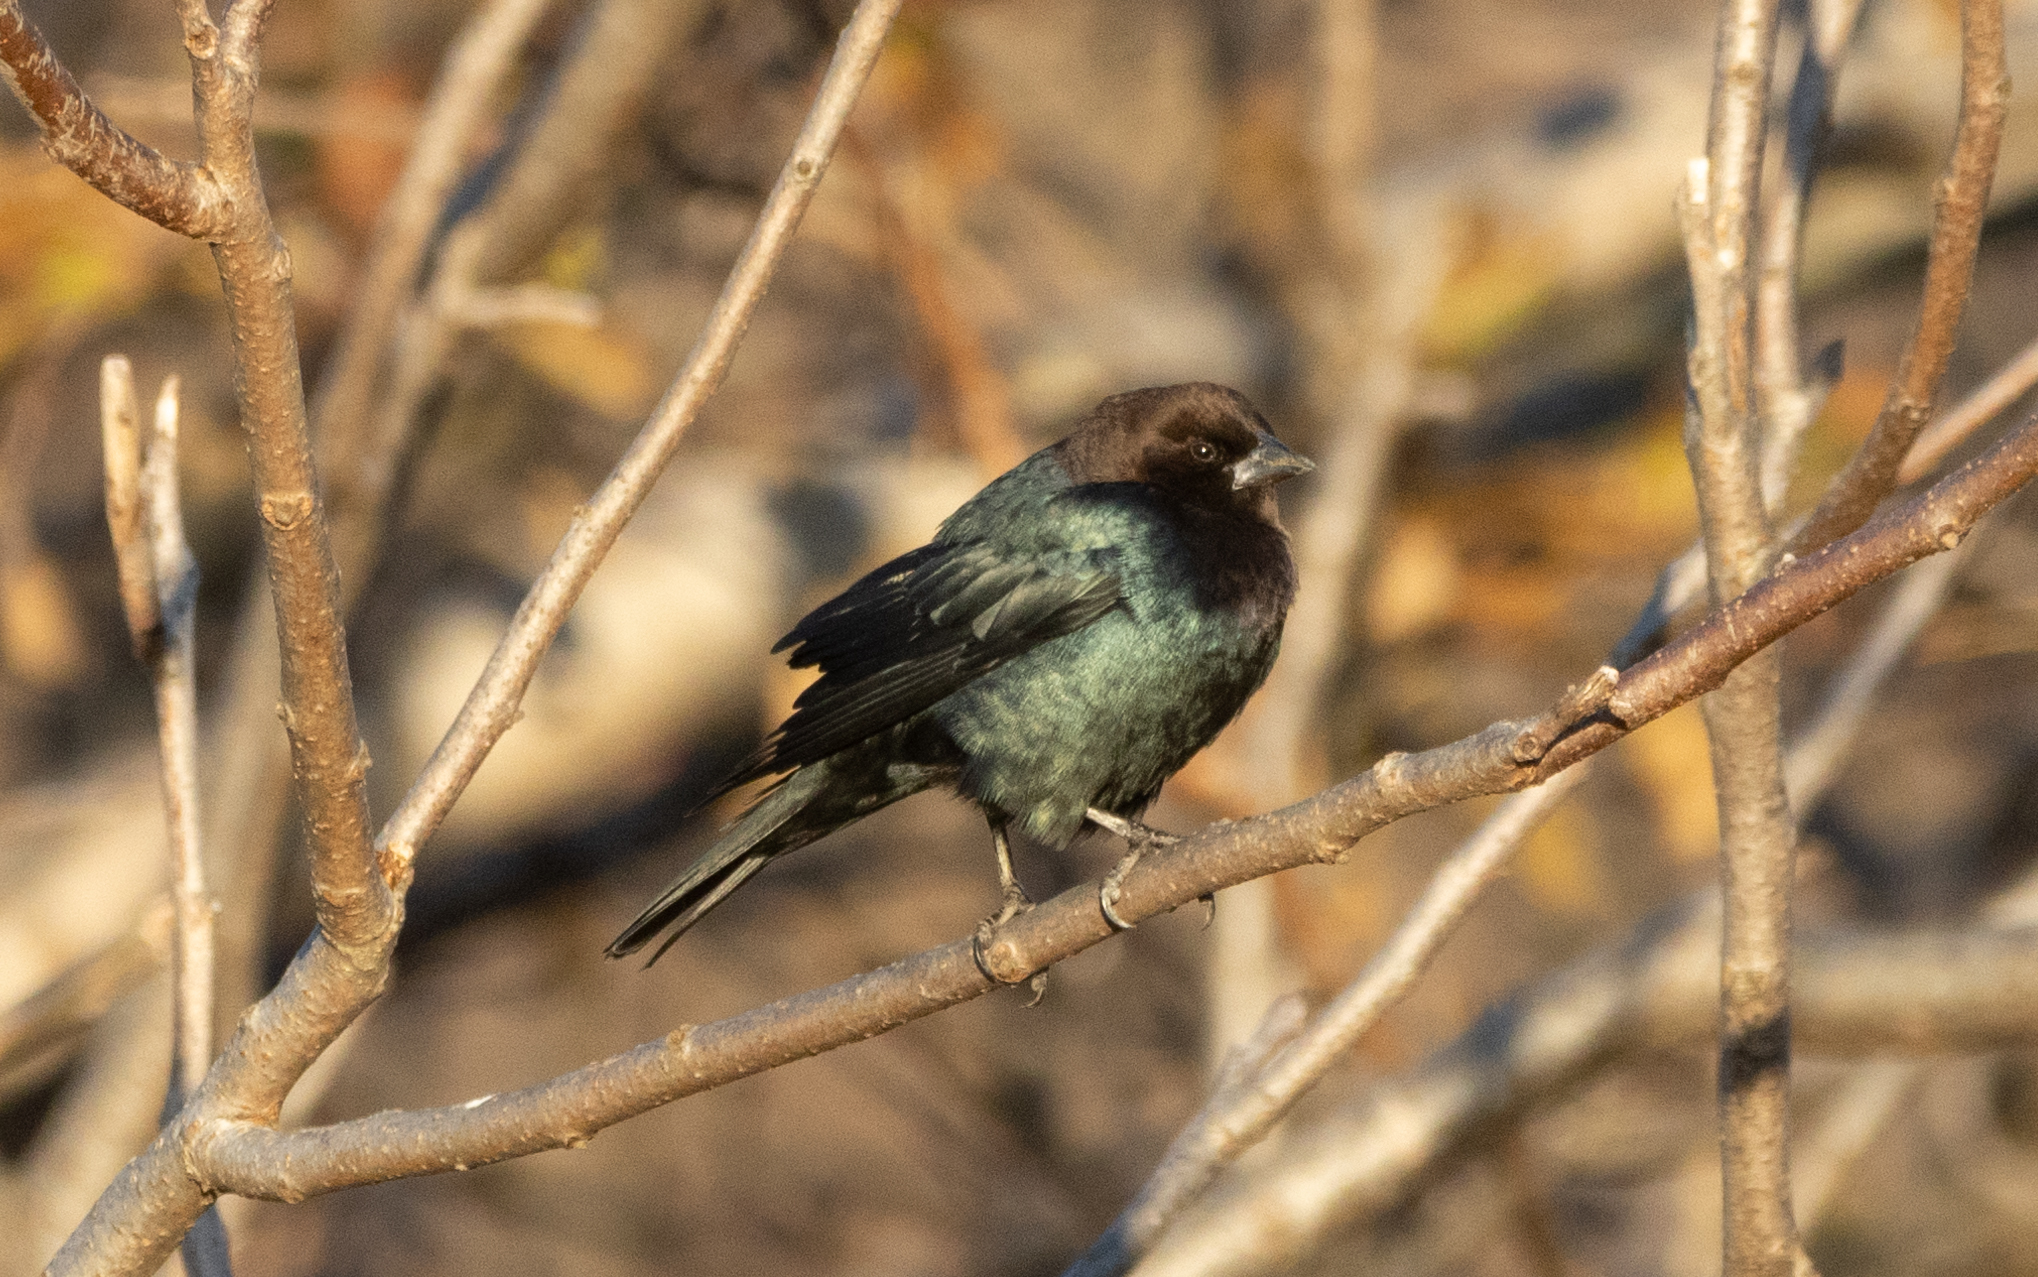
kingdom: Animalia
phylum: Chordata
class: Aves
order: Passeriformes
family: Icteridae
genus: Molothrus
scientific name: Molothrus ater
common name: Brown-headed cowbird
